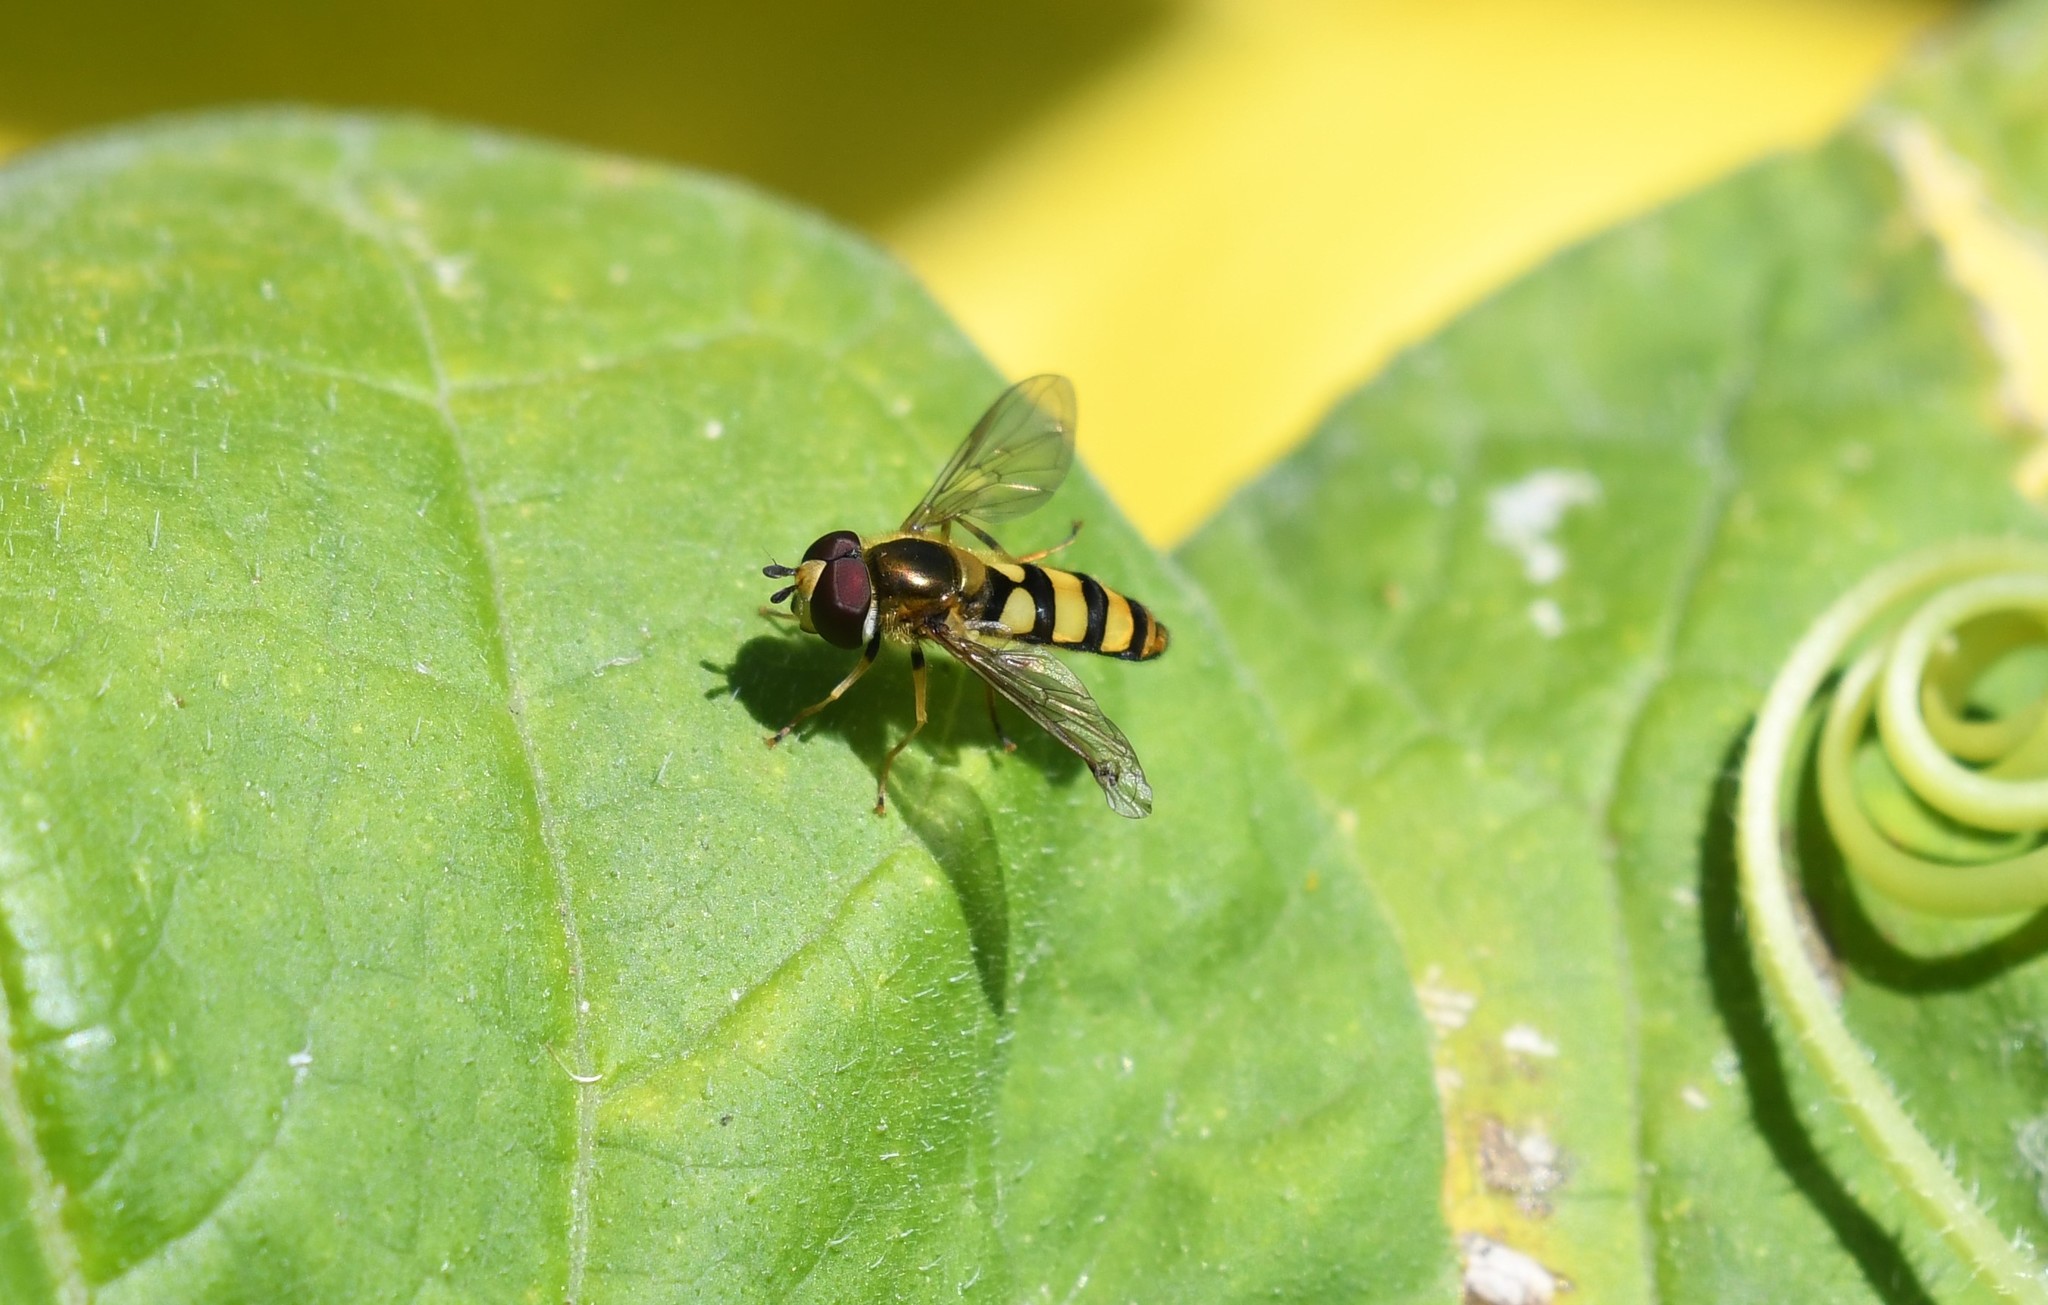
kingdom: Animalia
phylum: Arthropoda
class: Insecta
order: Diptera
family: Syrphidae
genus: Eupeodes
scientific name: Eupeodes
